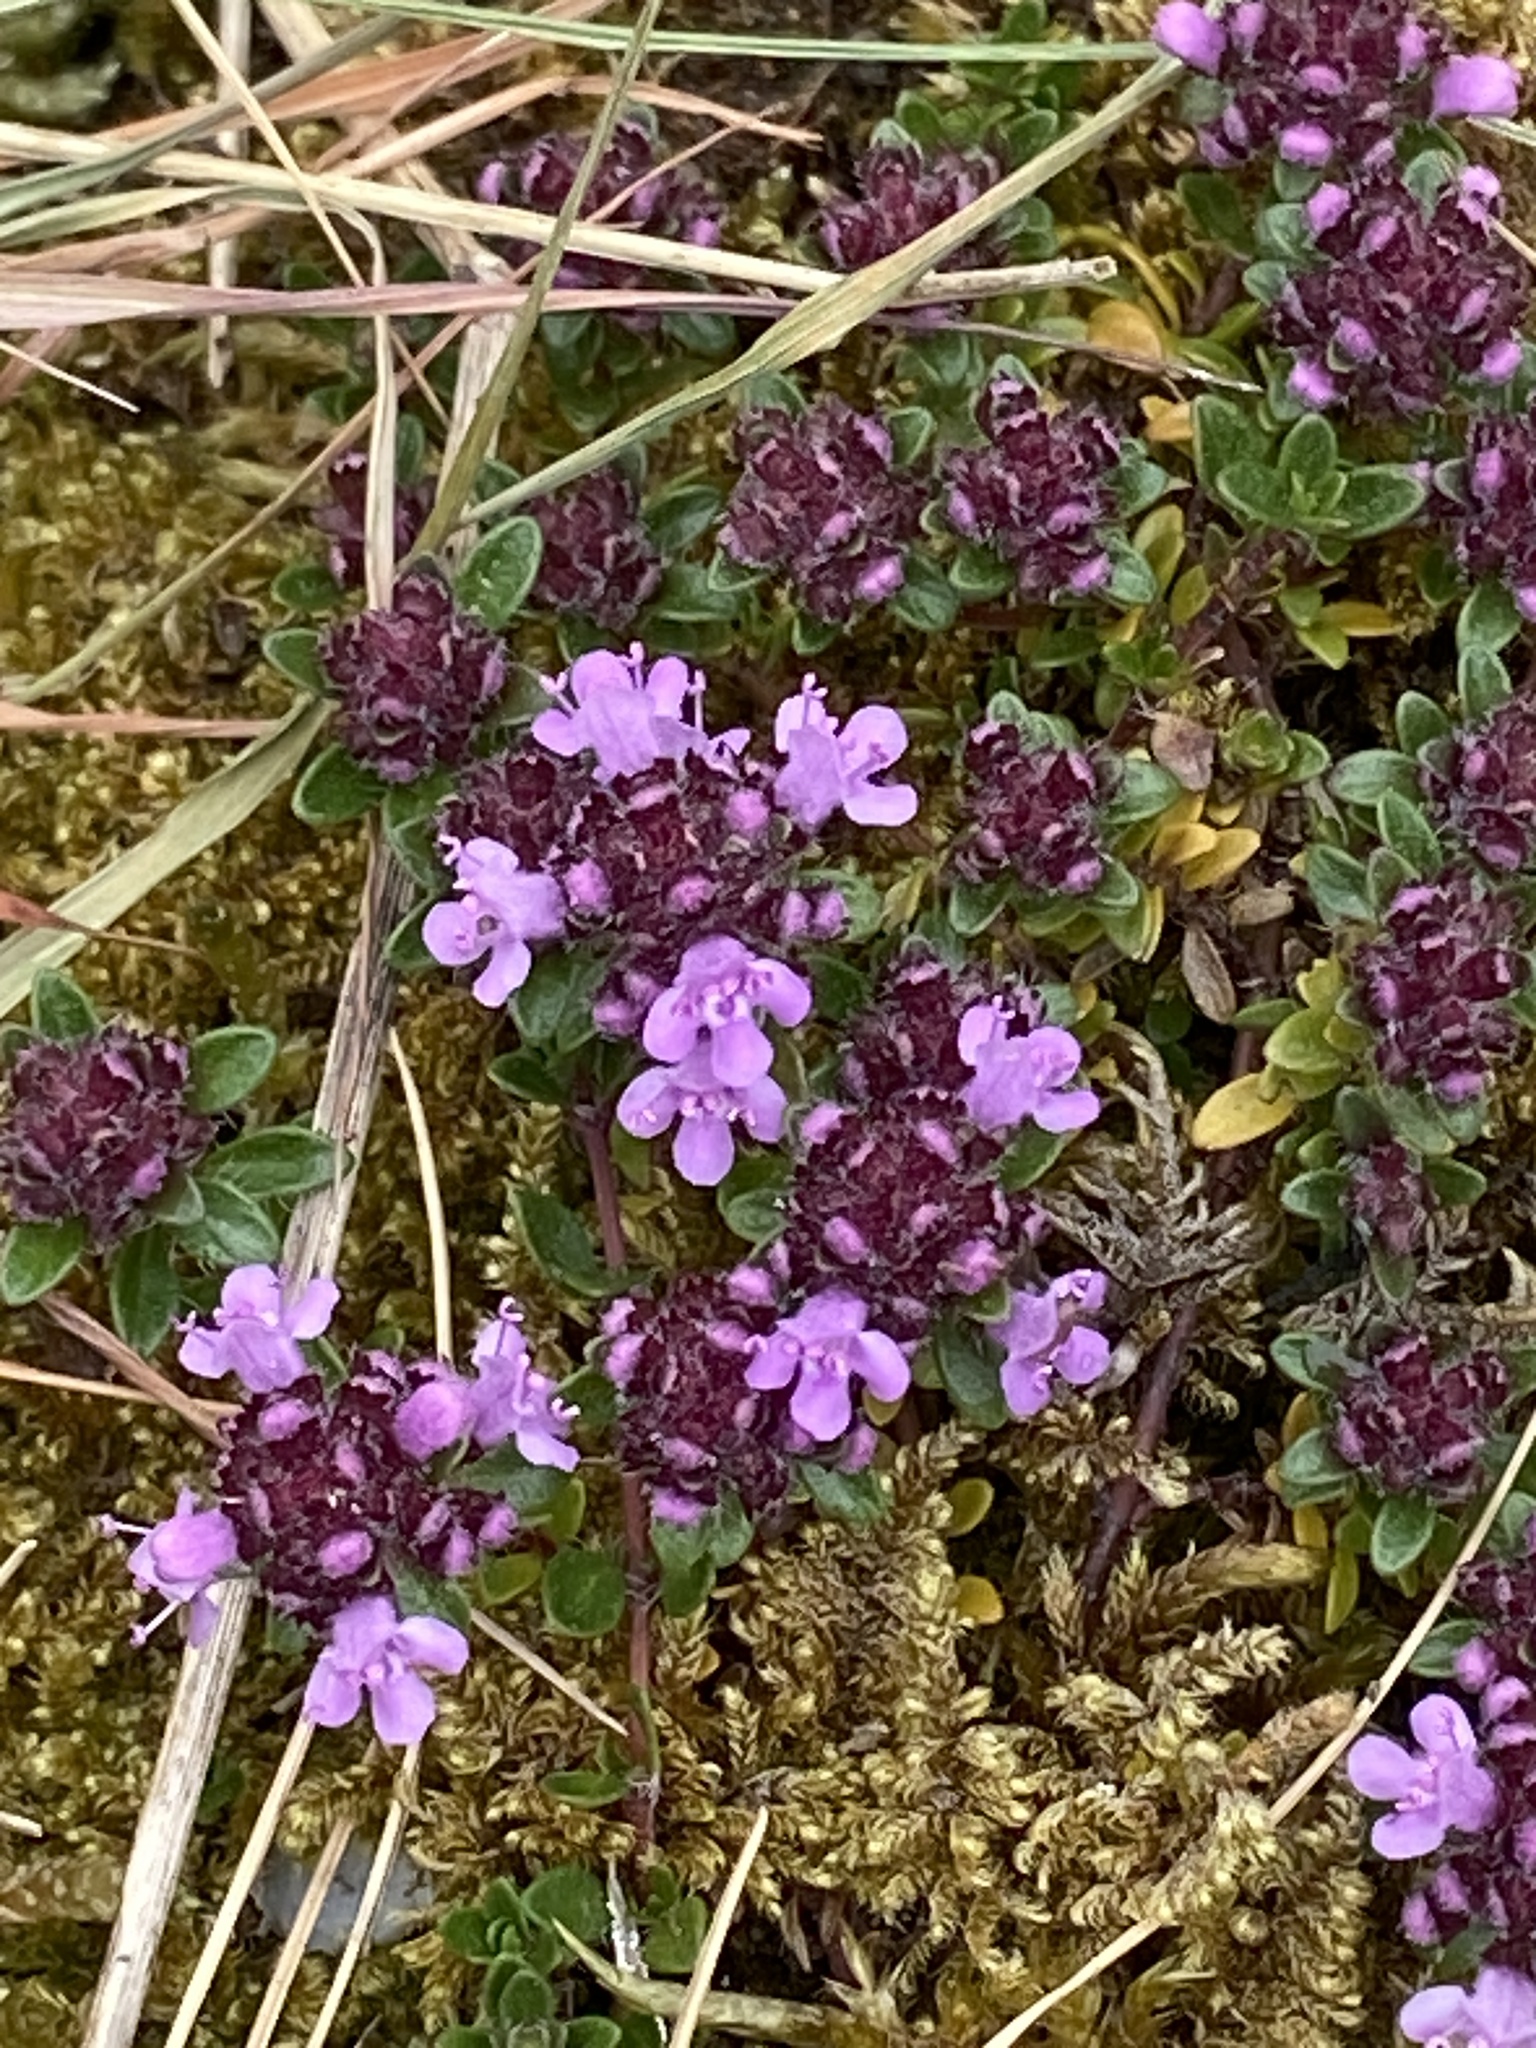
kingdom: Plantae
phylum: Tracheophyta
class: Magnoliopsida
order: Lamiales
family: Lamiaceae
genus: Thymus
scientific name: Thymus praecox
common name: Wild thyme
